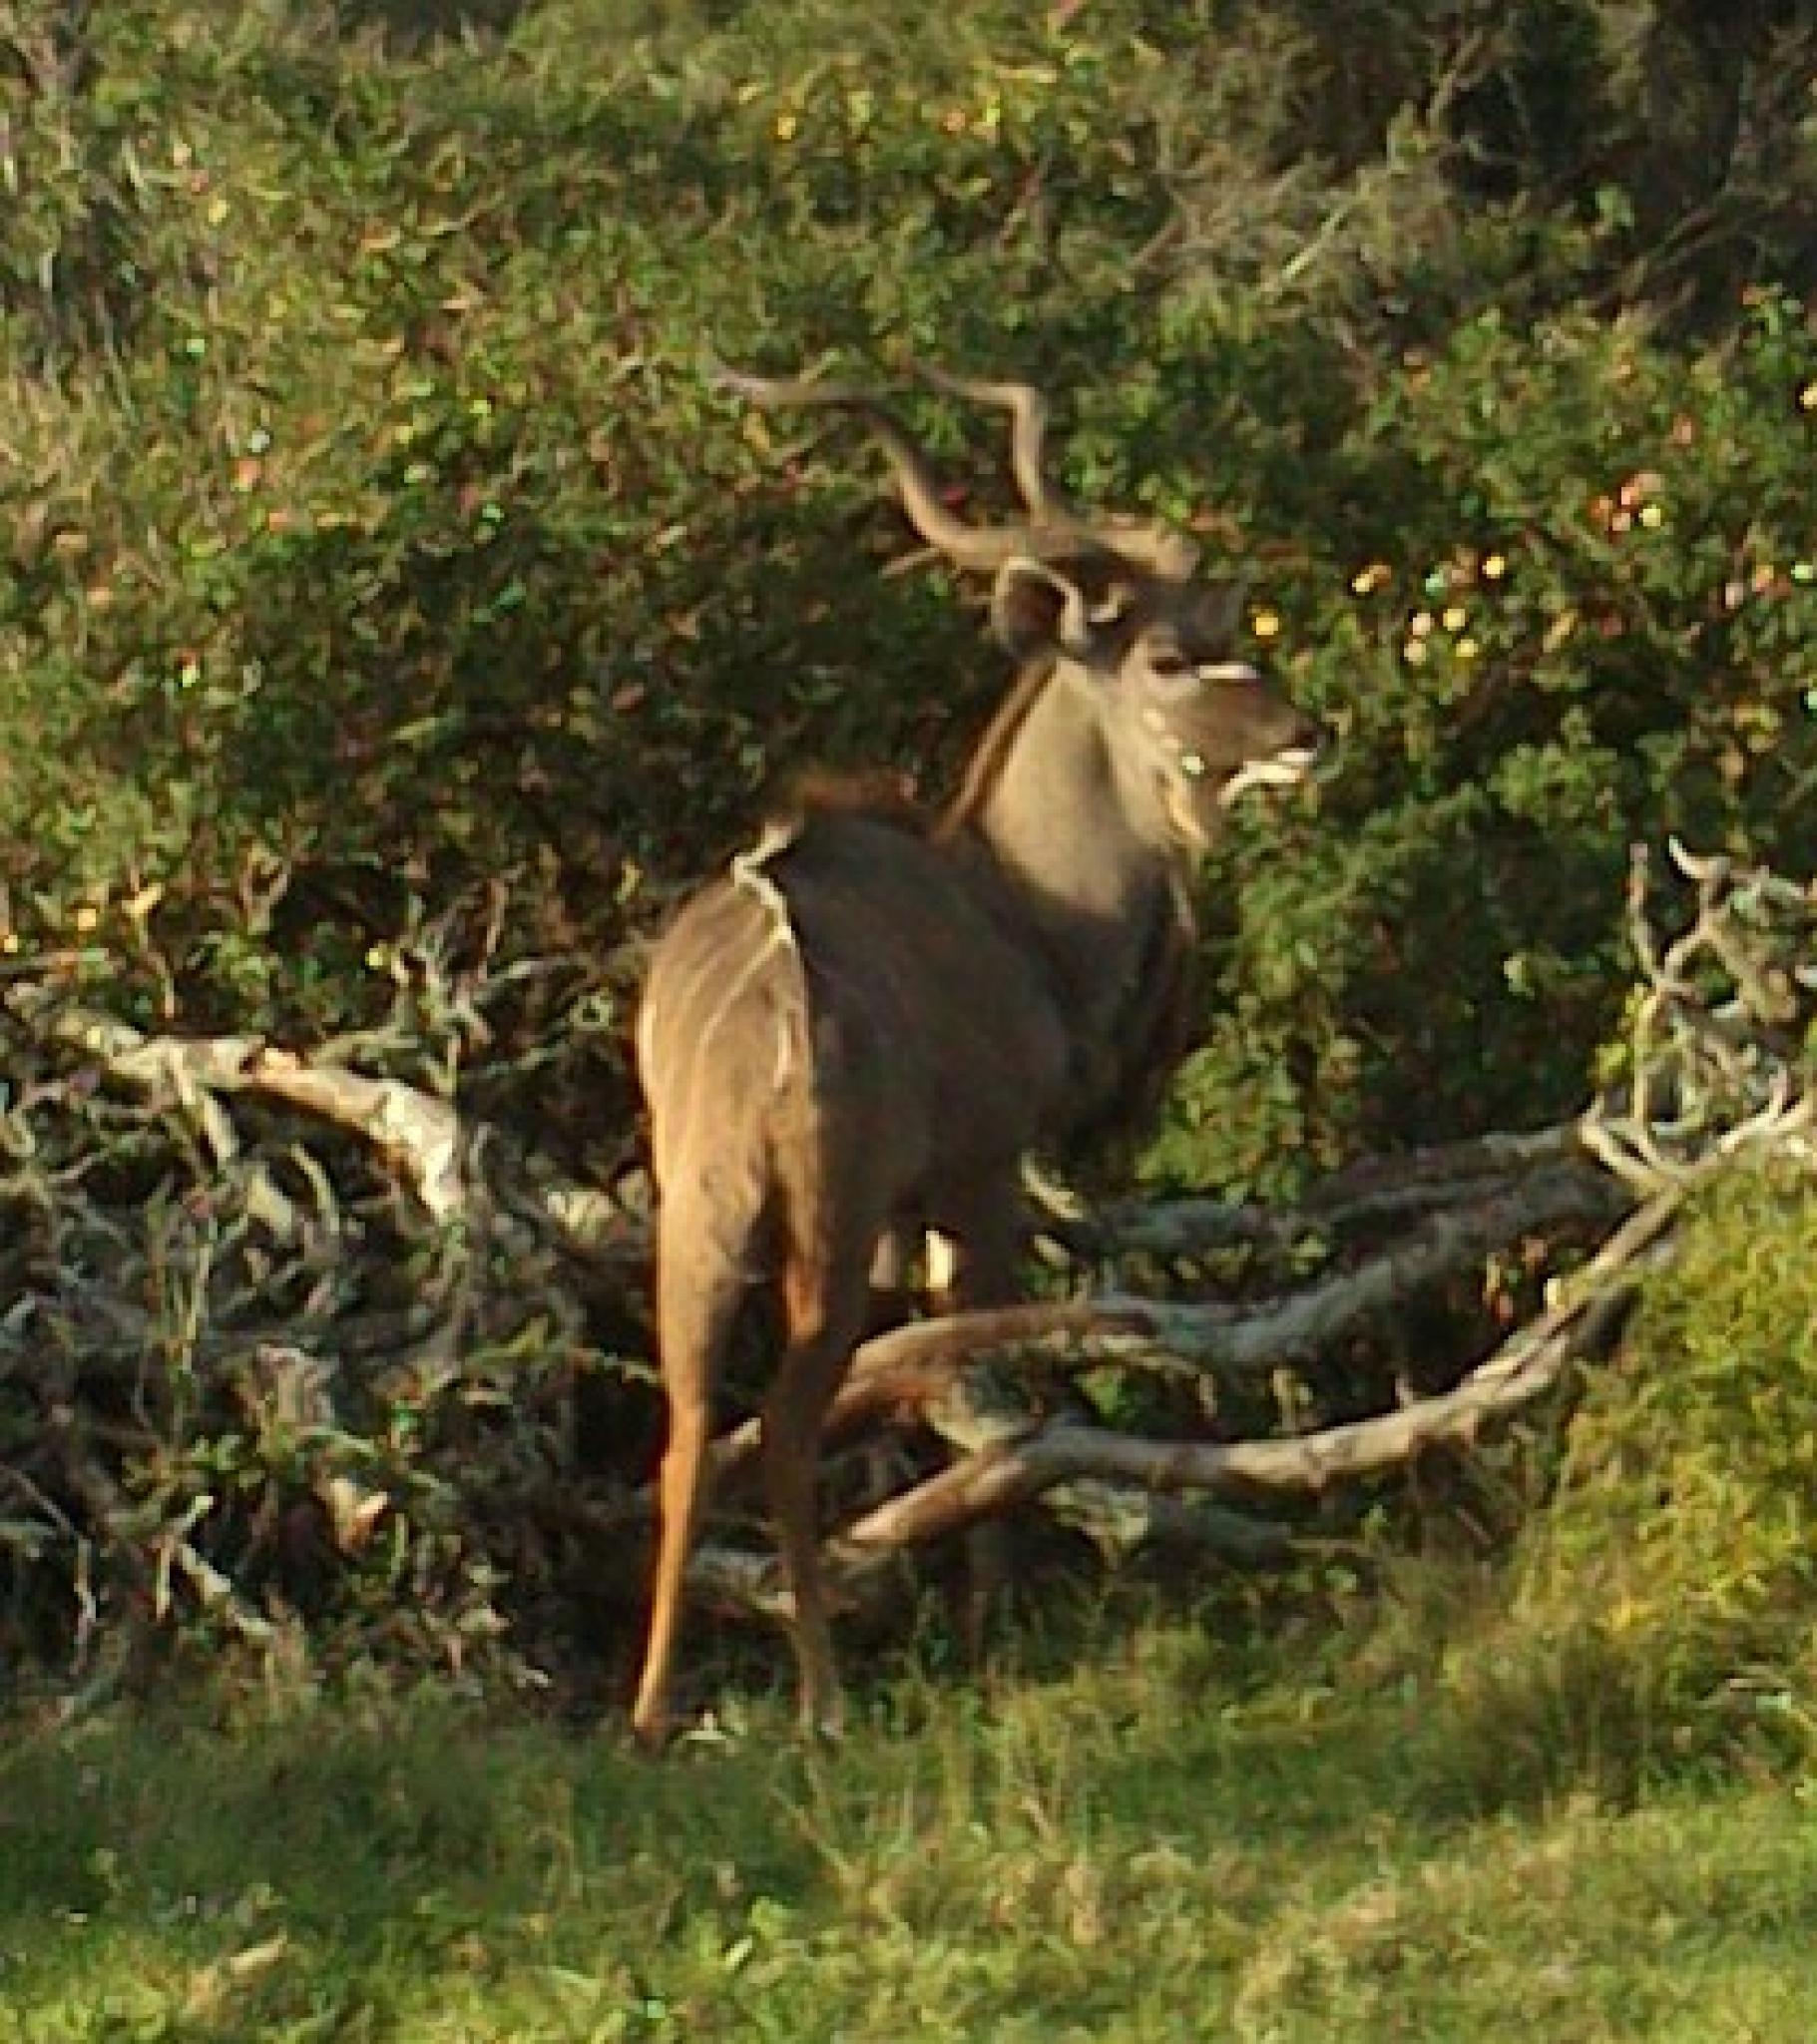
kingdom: Animalia
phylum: Chordata
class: Mammalia
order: Artiodactyla
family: Bovidae
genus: Tragelaphus
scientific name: Tragelaphus strepsiceros
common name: Greater kudu
